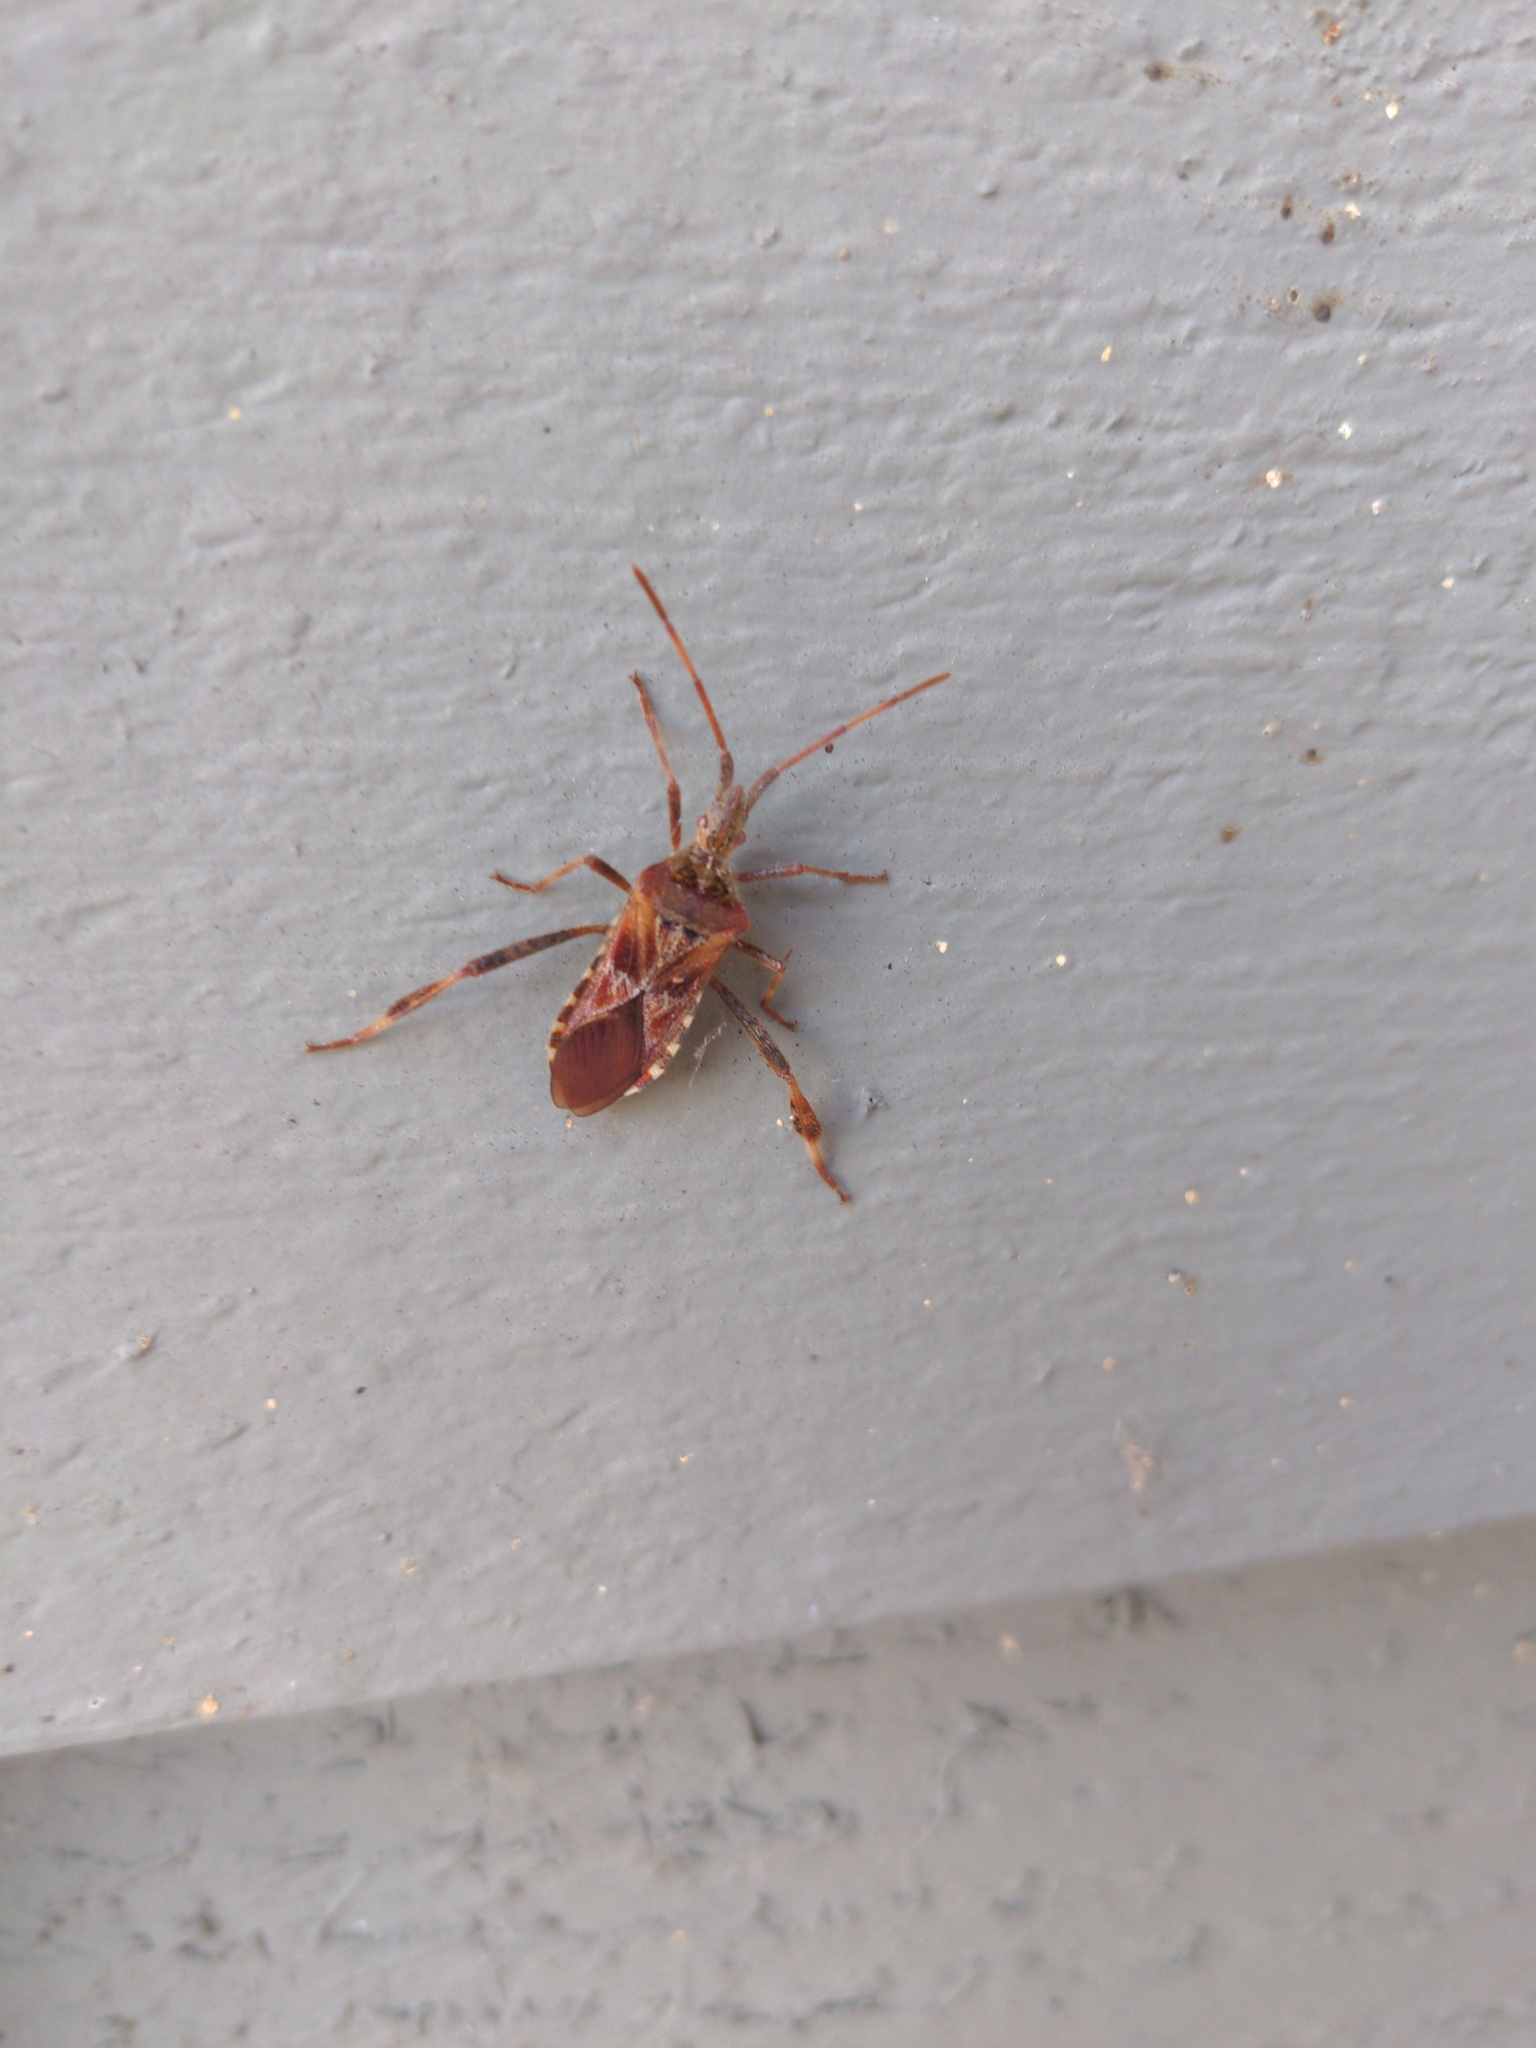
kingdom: Animalia
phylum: Arthropoda
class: Insecta
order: Hemiptera
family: Coreidae
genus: Leptoglossus
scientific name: Leptoglossus occidentalis
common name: Western conifer-seed bug
